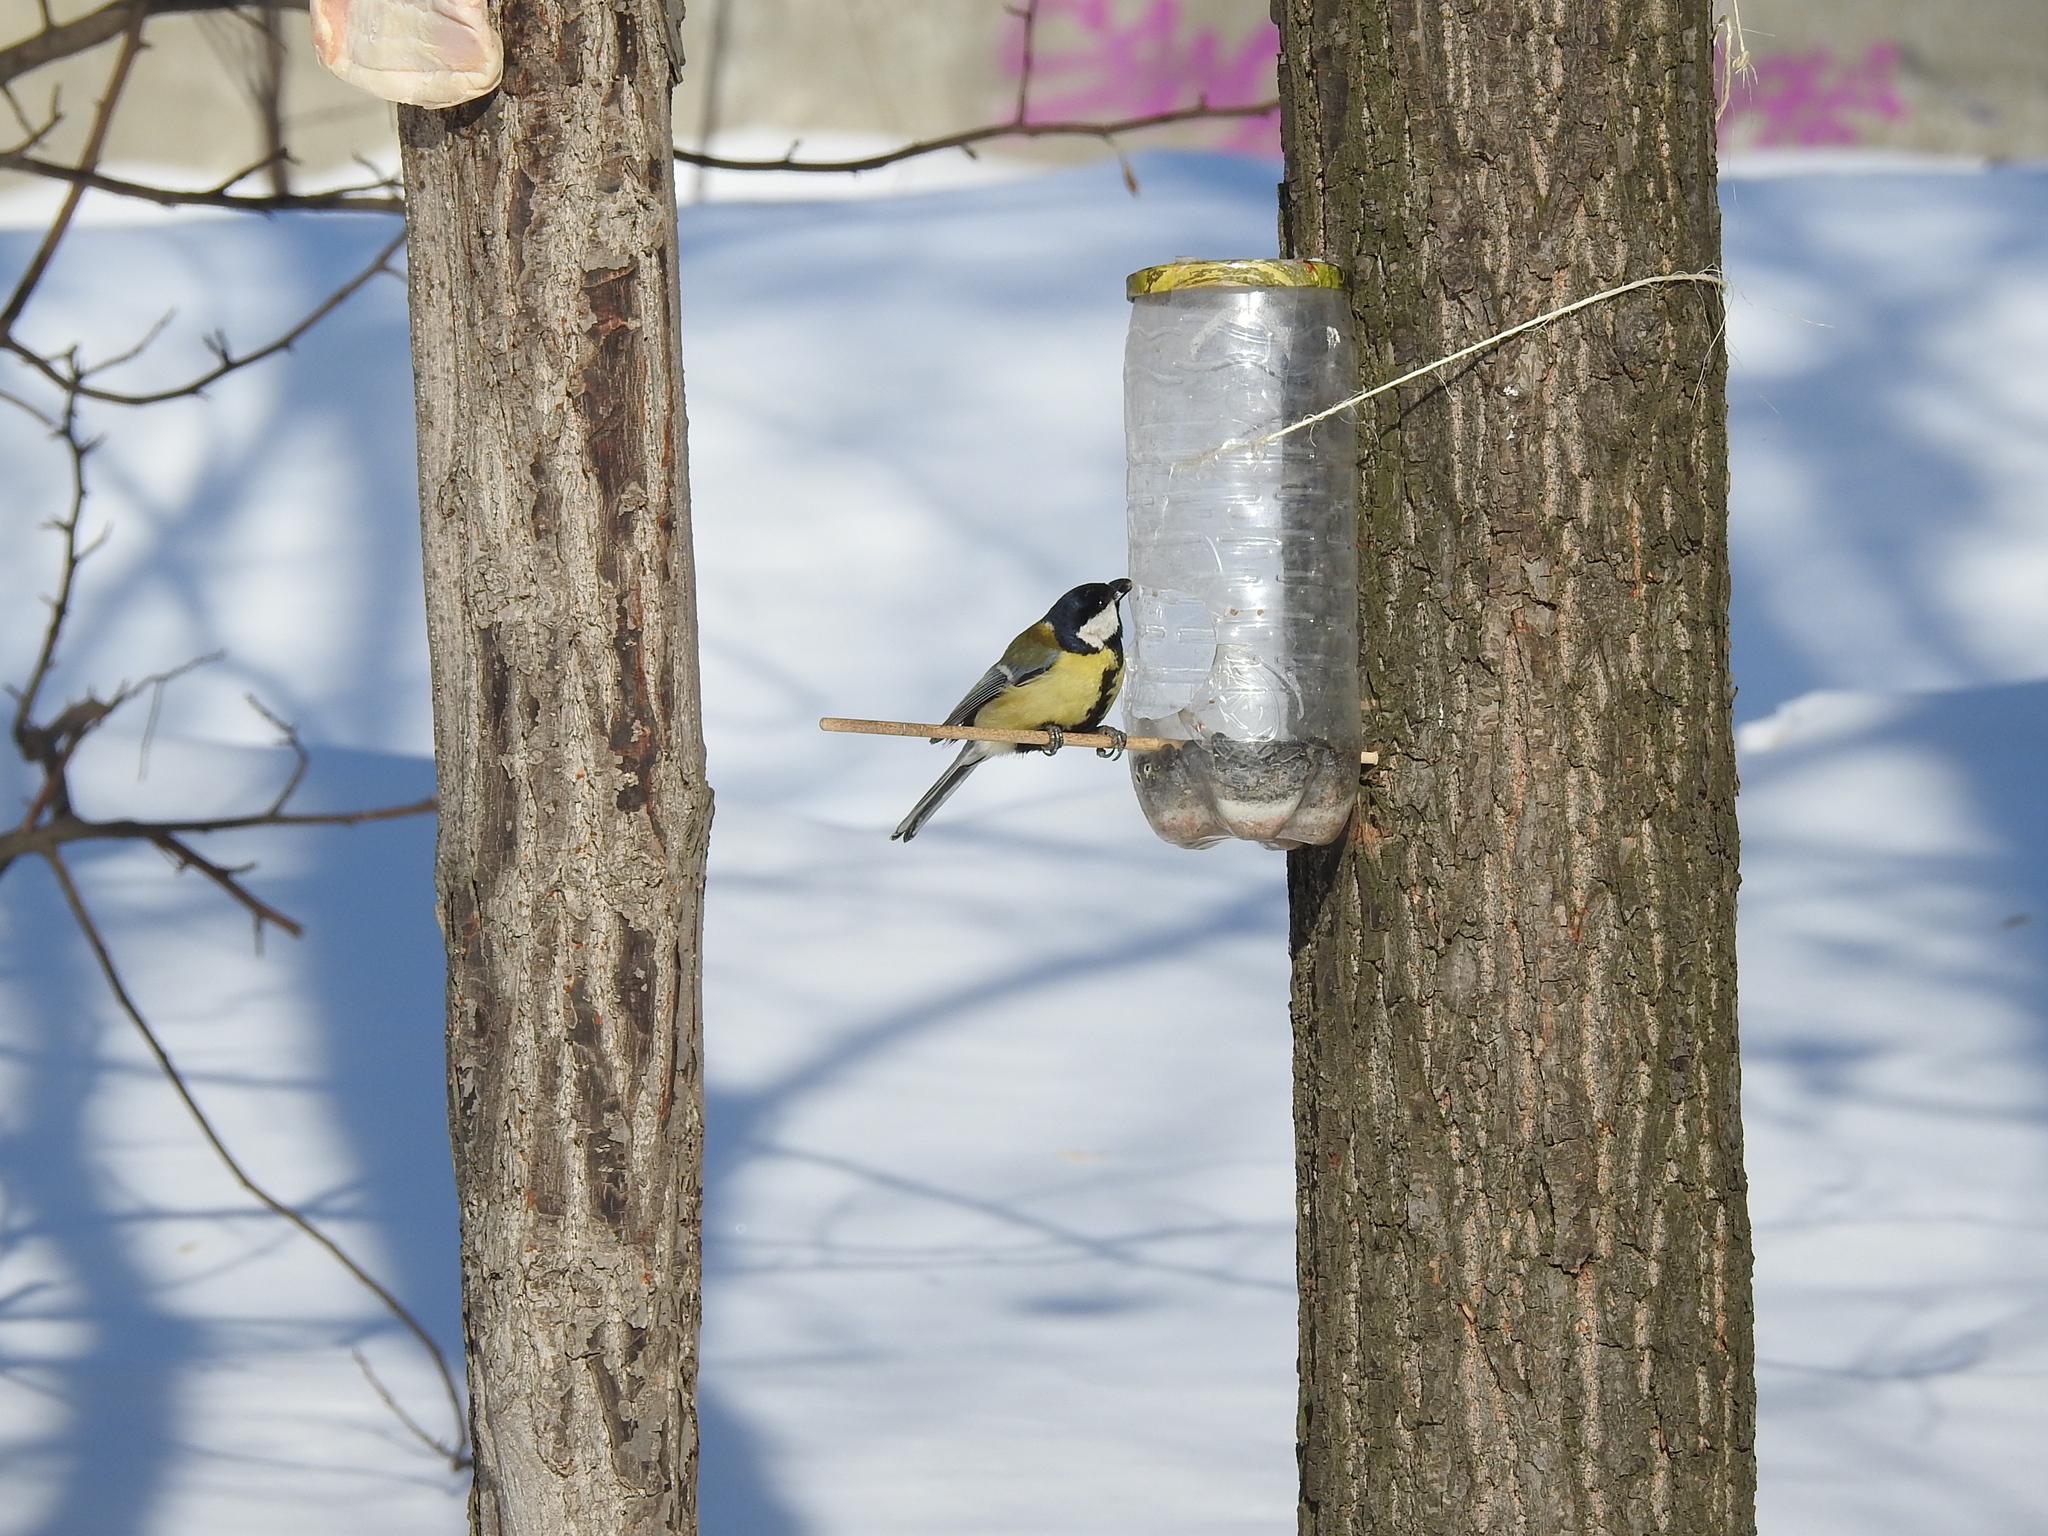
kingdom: Animalia
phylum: Chordata
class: Aves
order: Passeriformes
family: Paridae
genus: Parus
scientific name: Parus major
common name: Great tit
